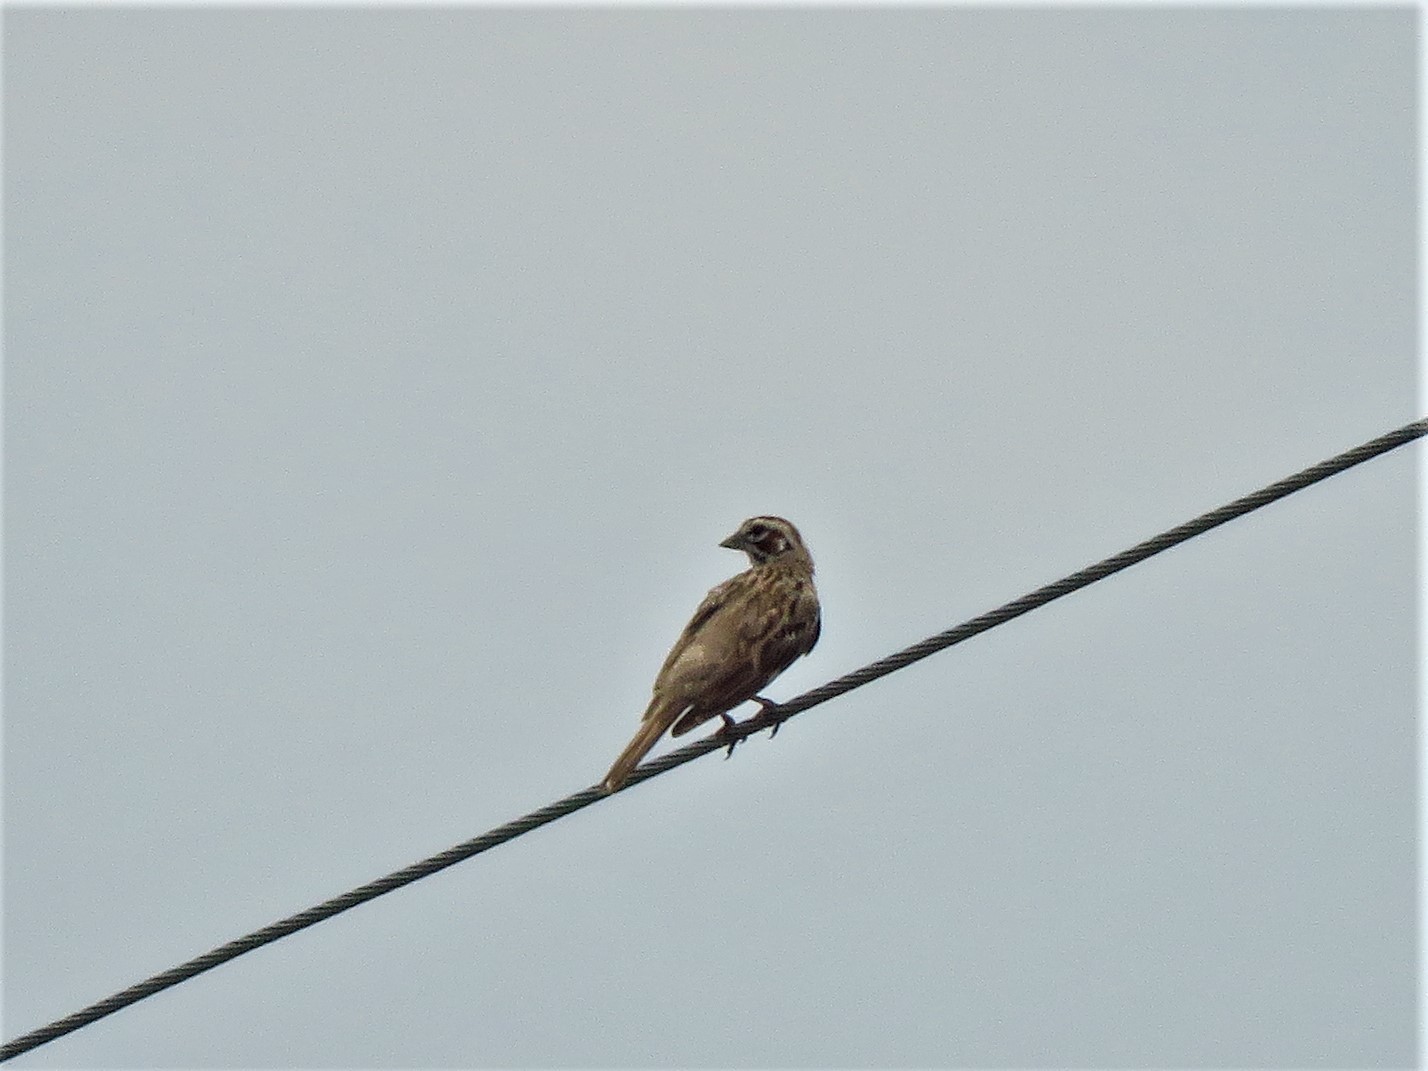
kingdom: Animalia
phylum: Chordata
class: Aves
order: Passeriformes
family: Passerellidae
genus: Chondestes
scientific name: Chondestes grammacus
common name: Lark sparrow
